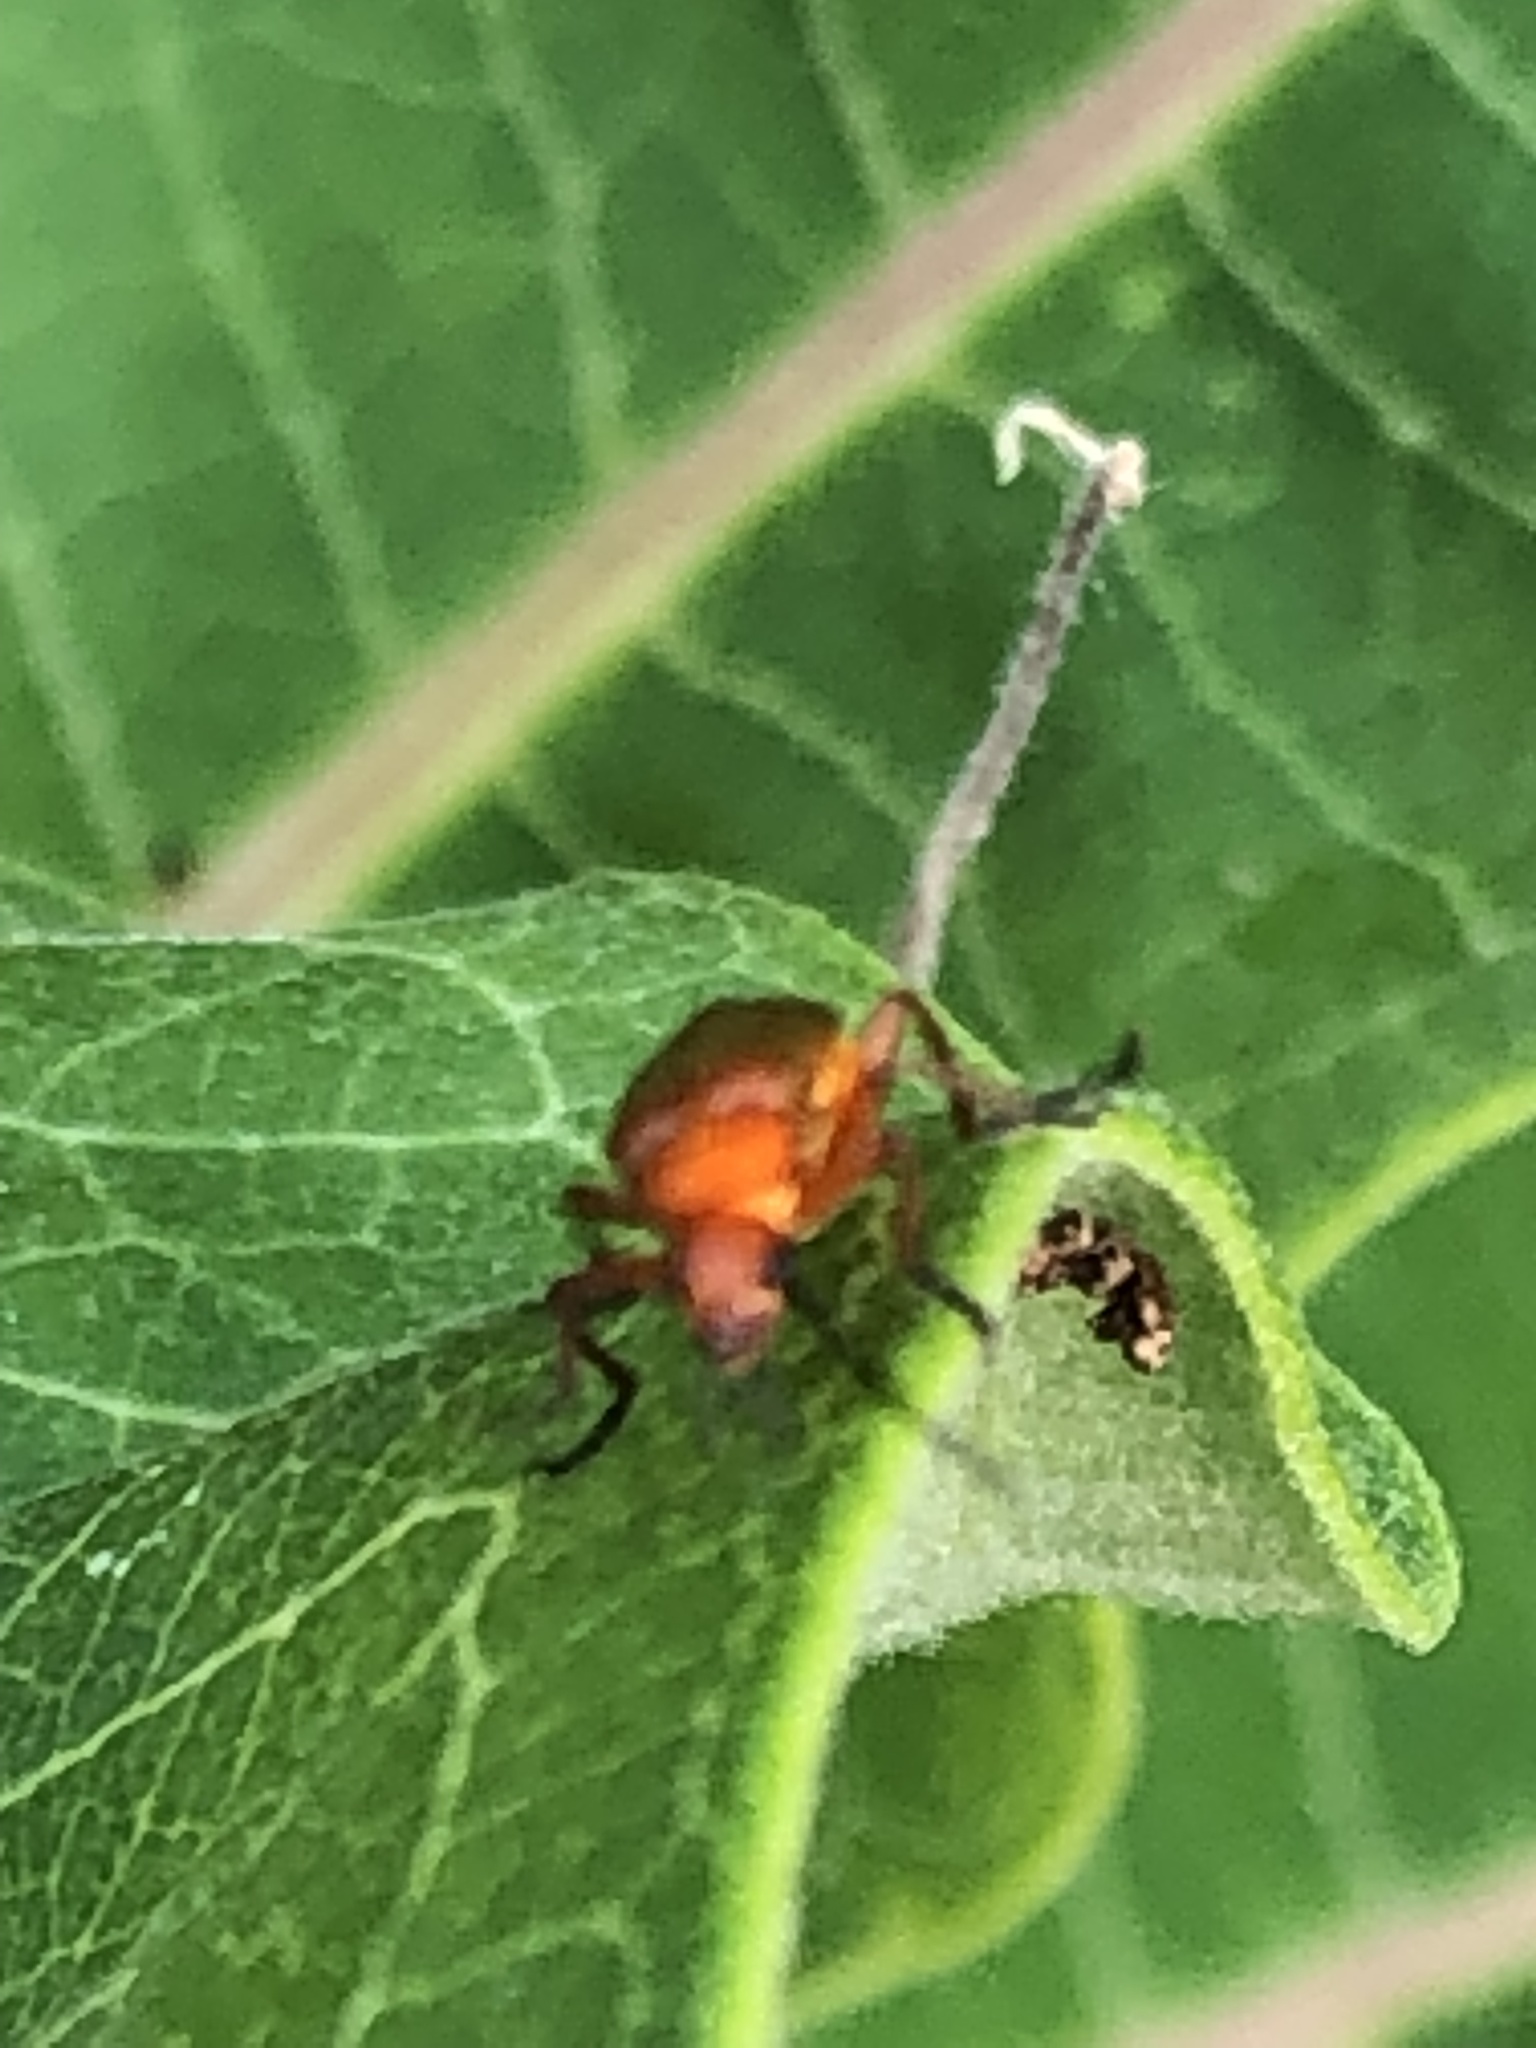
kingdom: Animalia
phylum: Arthropoda
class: Insecta
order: Coleoptera
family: Cantharidae
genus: Rhagonycha
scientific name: Rhagonycha fulva
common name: Common red soldier beetle
